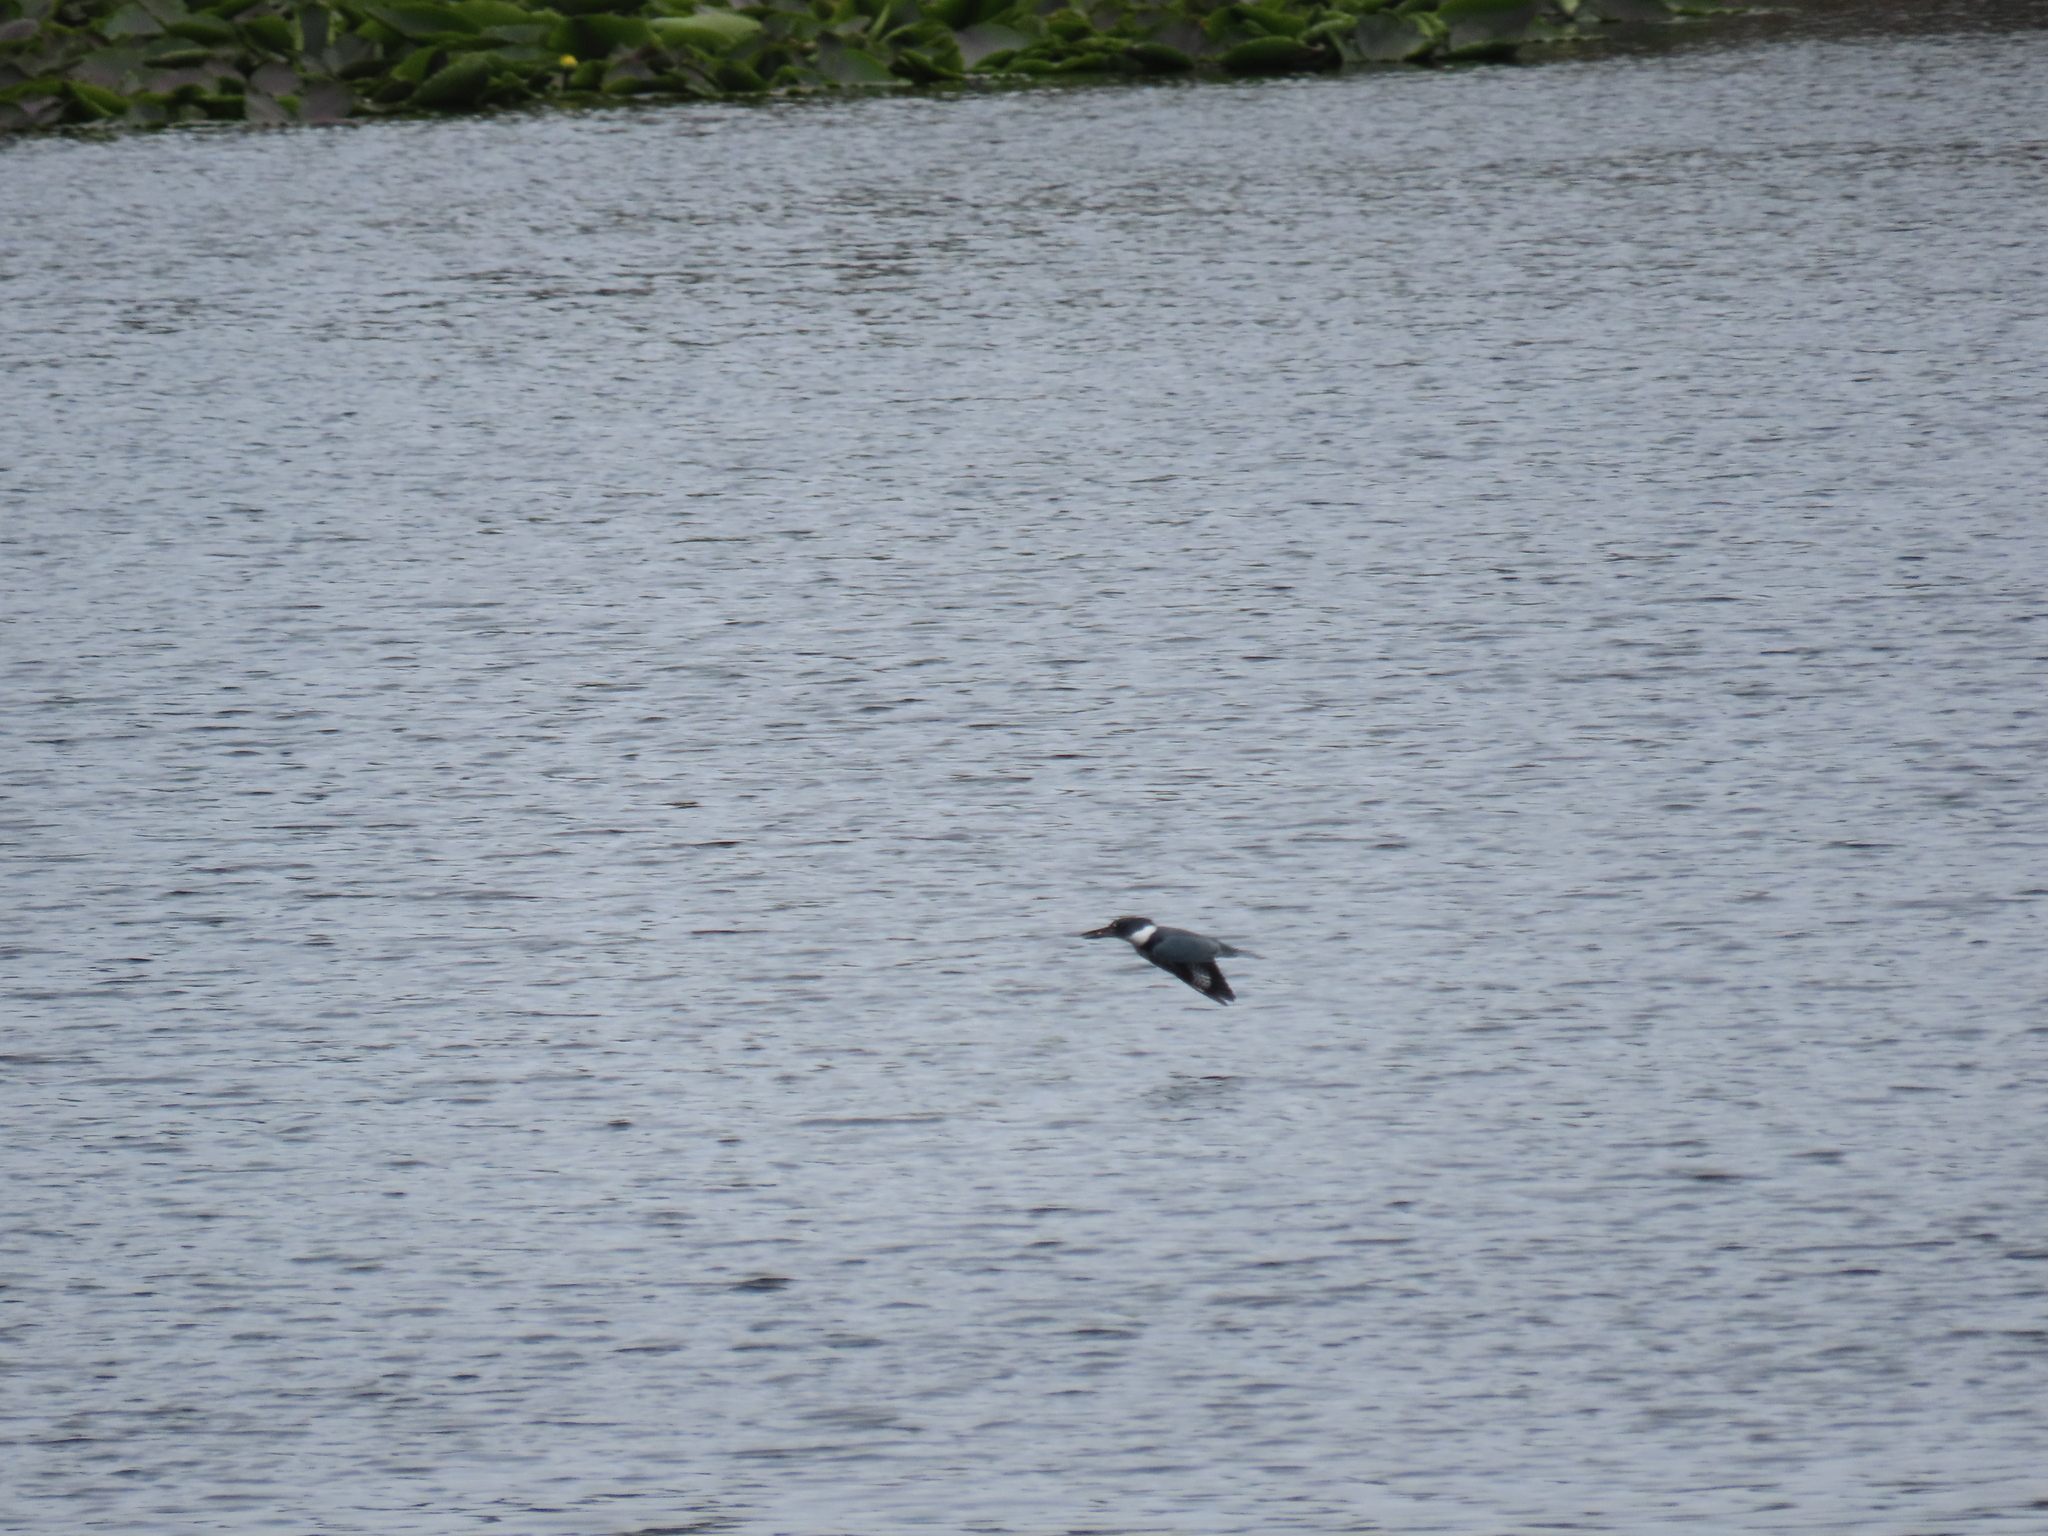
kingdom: Animalia
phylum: Chordata
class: Aves
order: Coraciiformes
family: Alcedinidae
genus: Megaceryle
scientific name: Megaceryle alcyon
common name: Belted kingfisher
